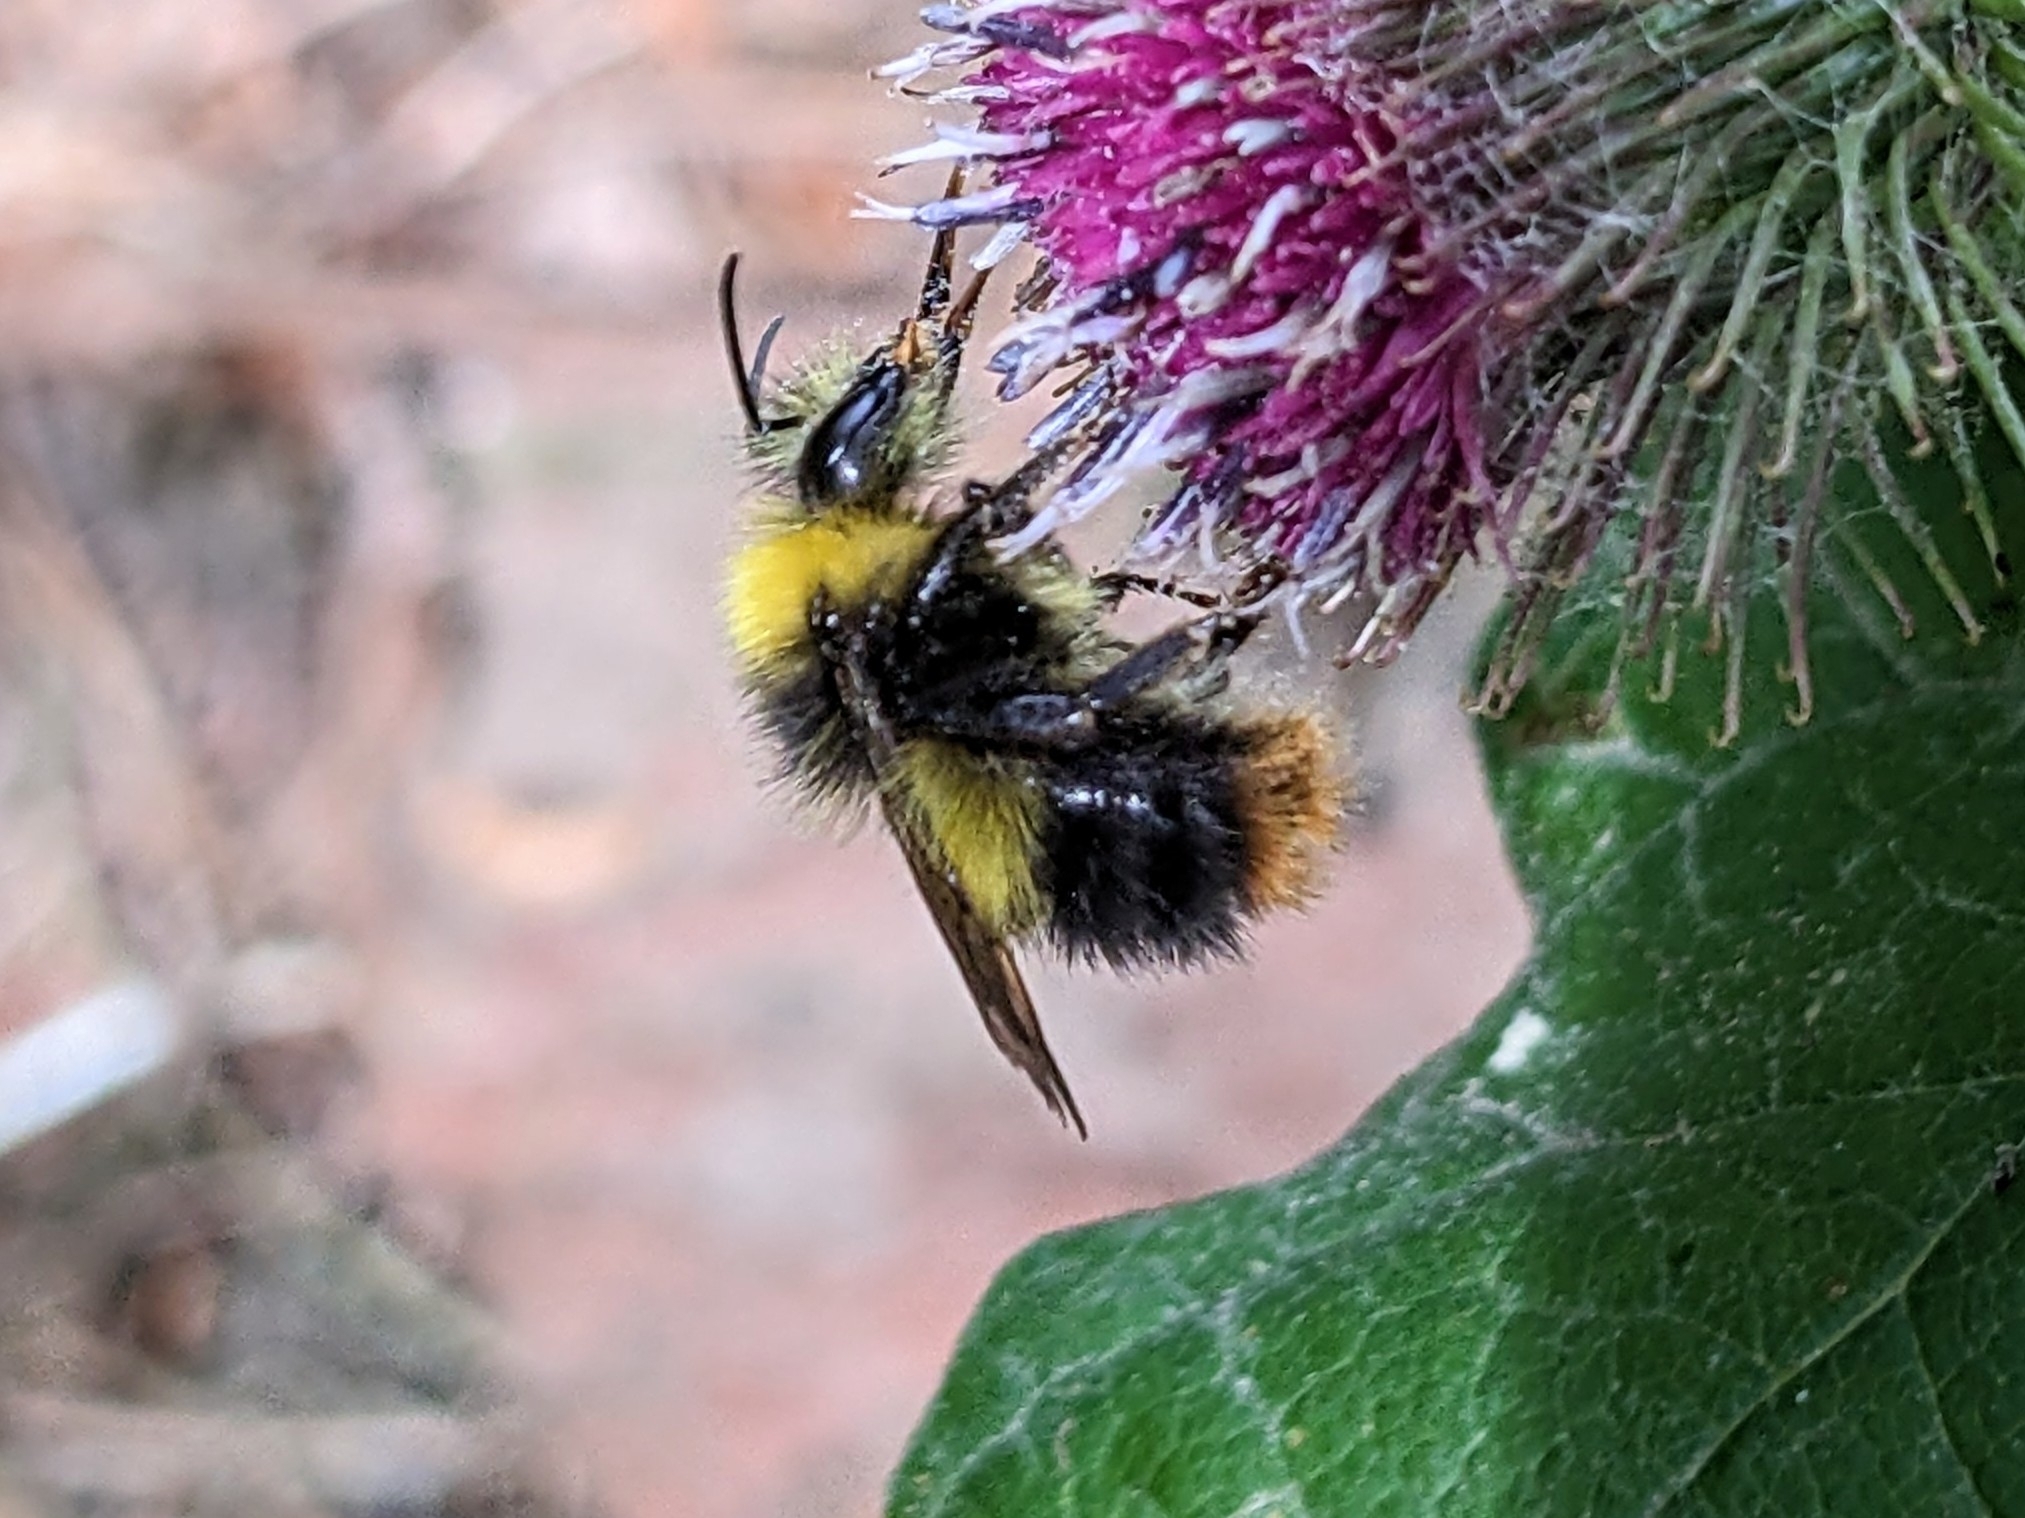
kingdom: Animalia
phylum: Arthropoda
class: Insecta
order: Hymenoptera
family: Apidae
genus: Bombus
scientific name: Bombus pratorum
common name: Early humble-bee
